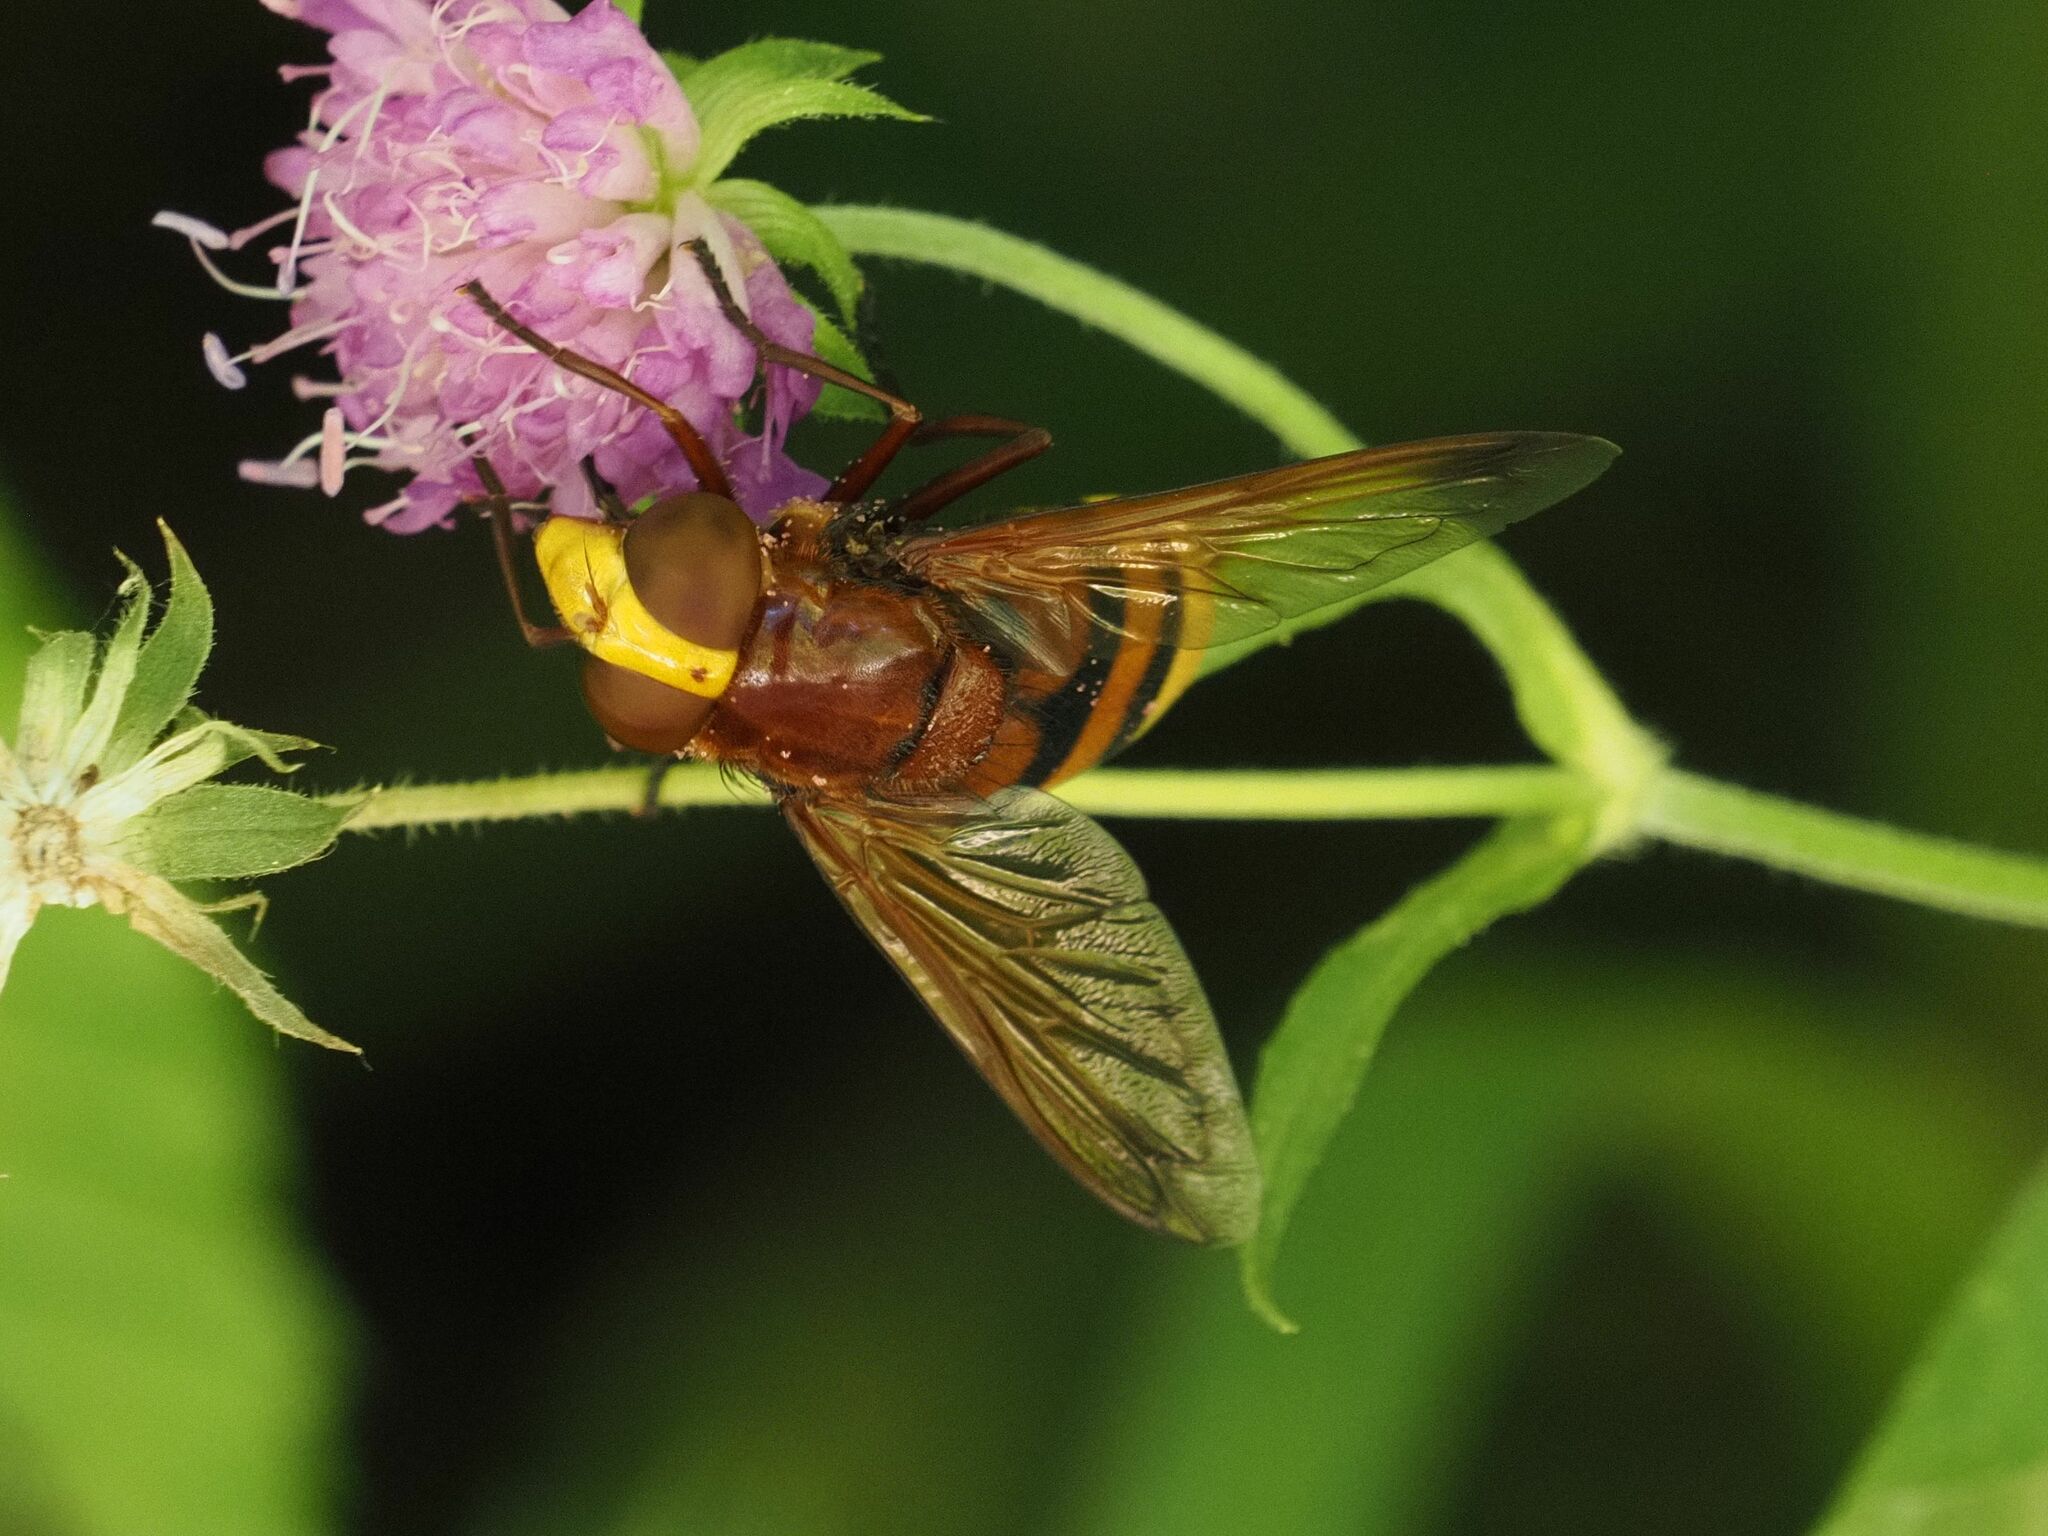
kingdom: Animalia
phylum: Arthropoda
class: Insecta
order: Diptera
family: Syrphidae
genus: Volucella
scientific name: Volucella zonaria
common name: Hornet hoverfly
